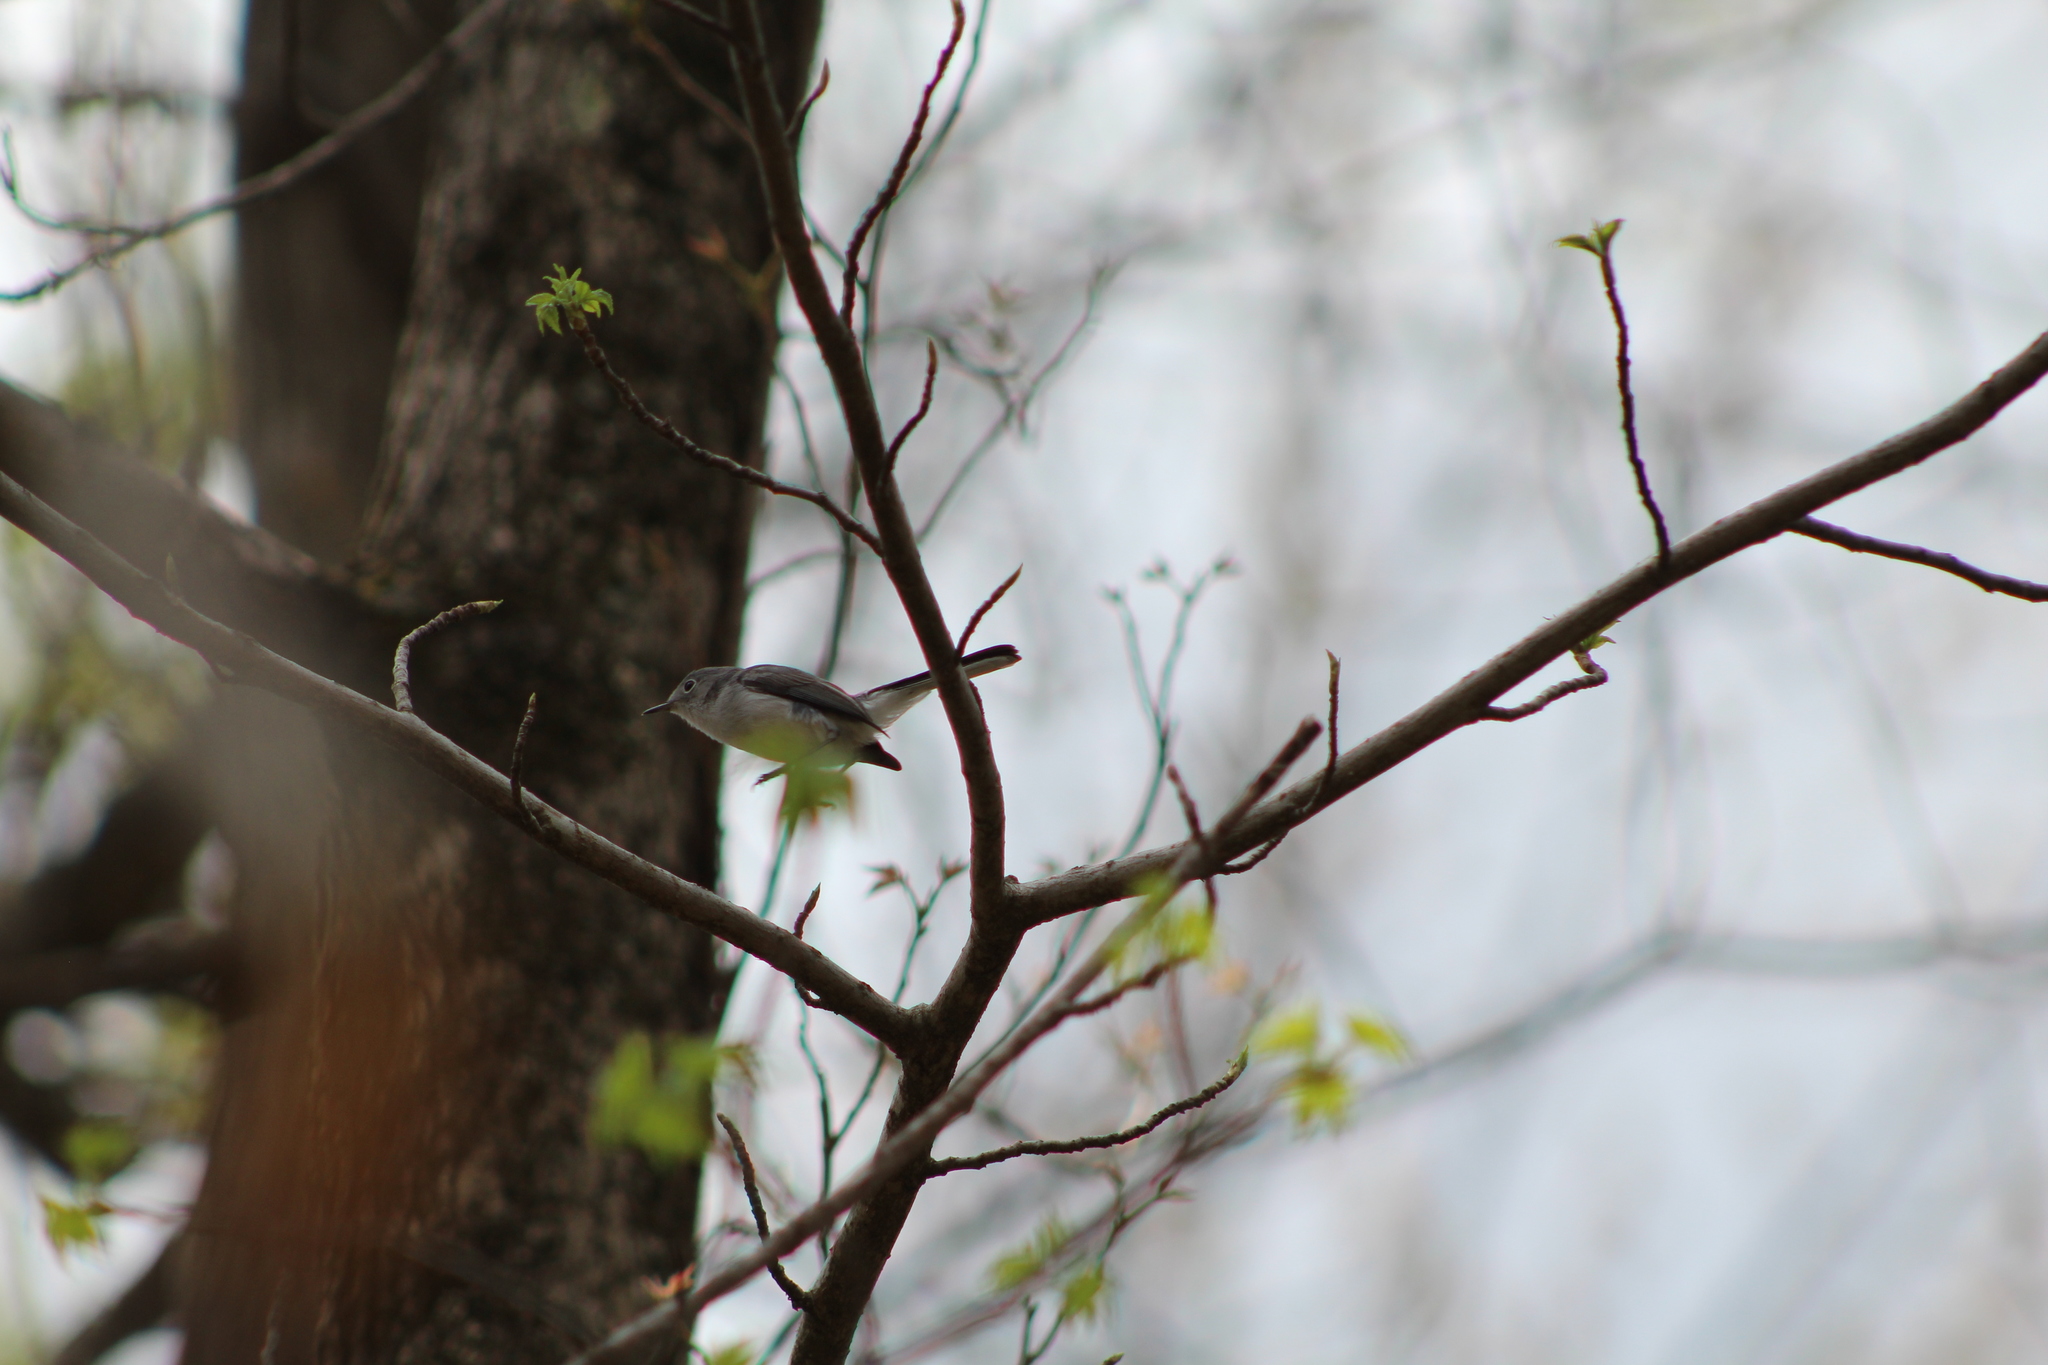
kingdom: Animalia
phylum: Chordata
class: Aves
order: Passeriformes
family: Polioptilidae
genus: Polioptila
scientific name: Polioptila caerulea
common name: Blue-gray gnatcatcher
